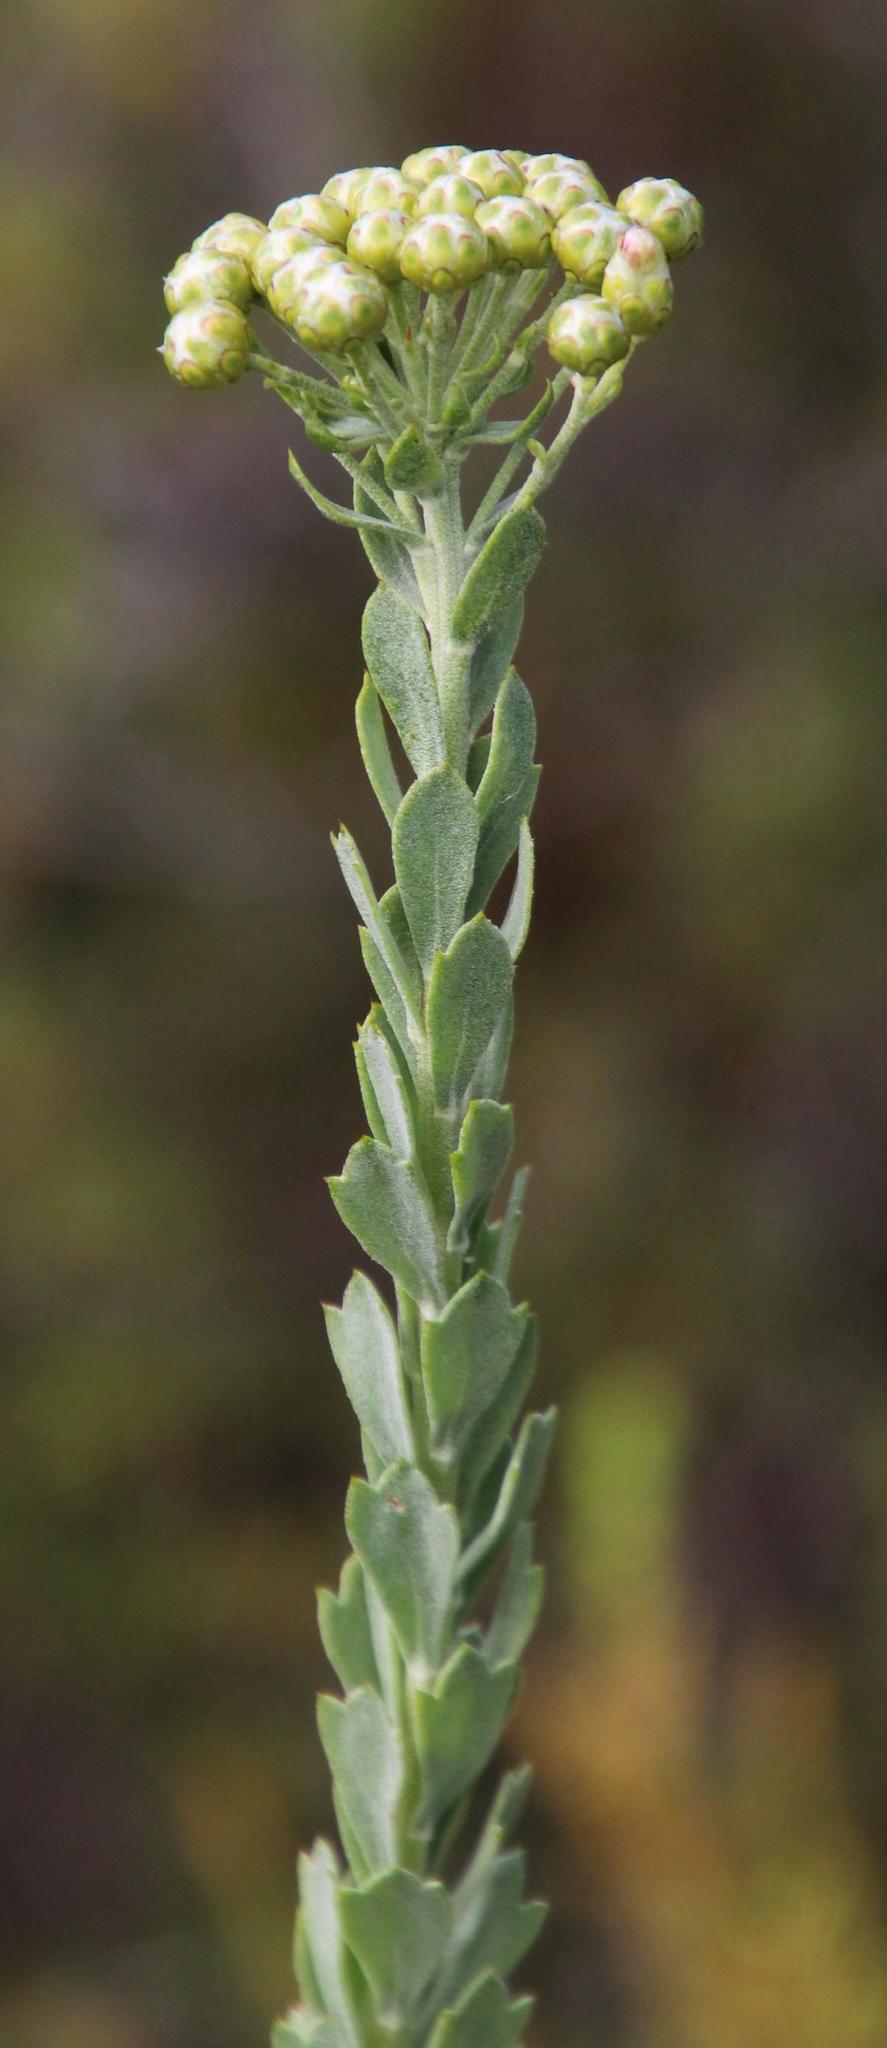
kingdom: Plantae
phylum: Tracheophyta
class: Magnoliopsida
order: Asterales
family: Asteraceae
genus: Athanasia
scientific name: Athanasia trifurcata
